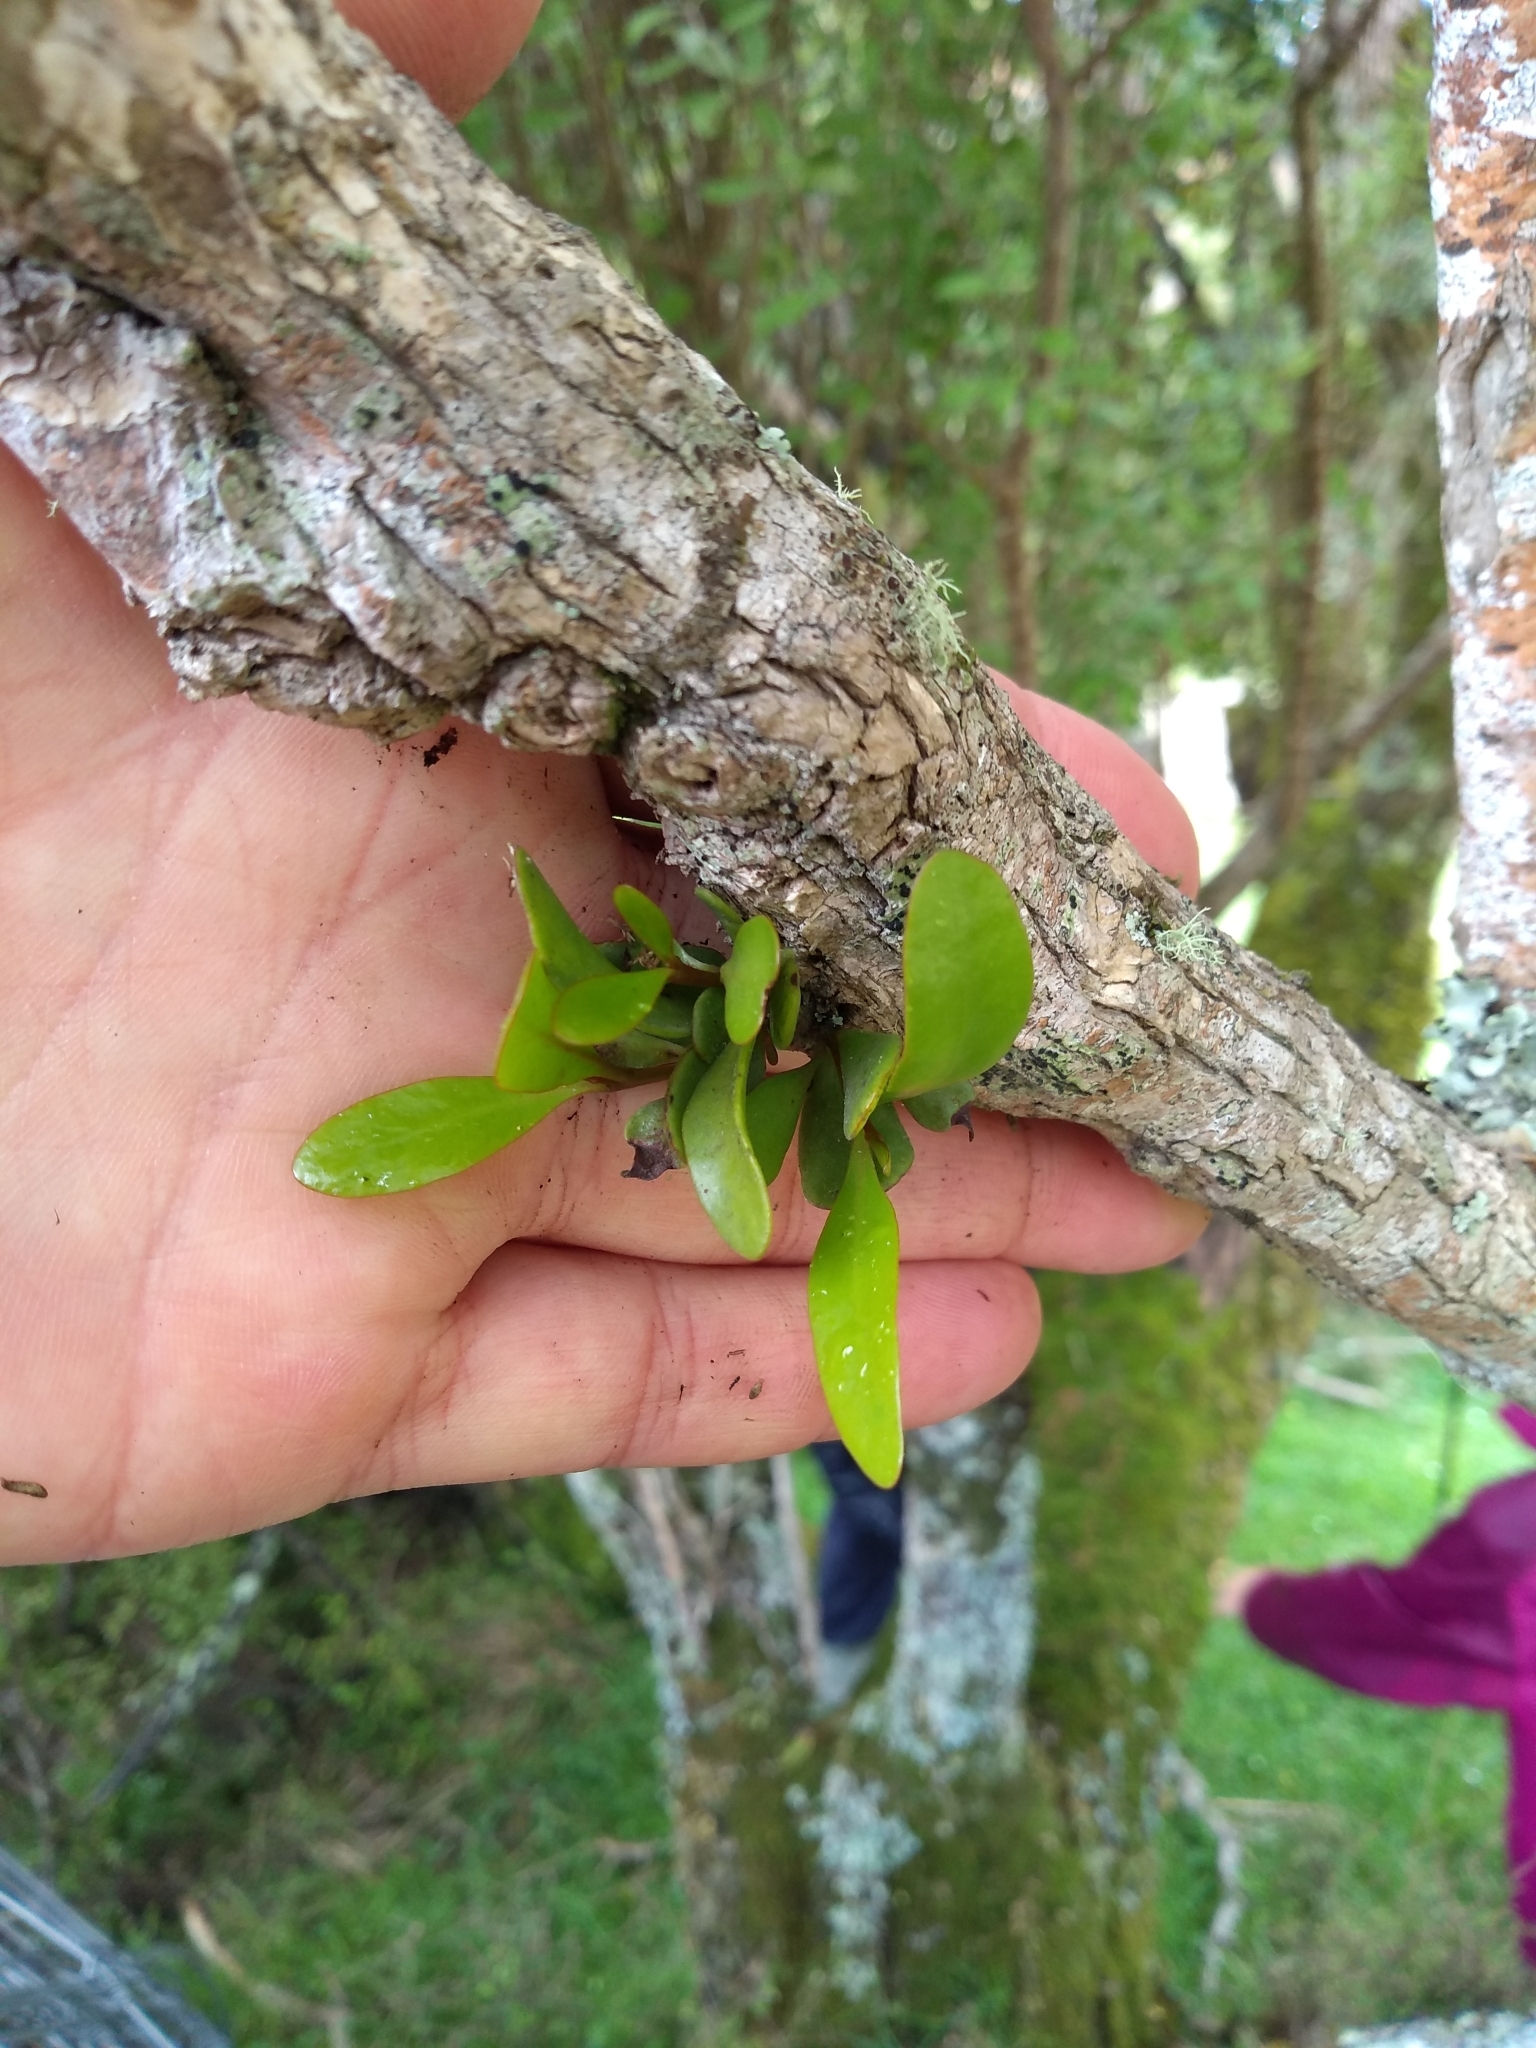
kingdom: Plantae
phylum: Tracheophyta
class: Magnoliopsida
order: Santalales
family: Loranthaceae
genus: Ileostylus
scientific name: Ileostylus micranthus
